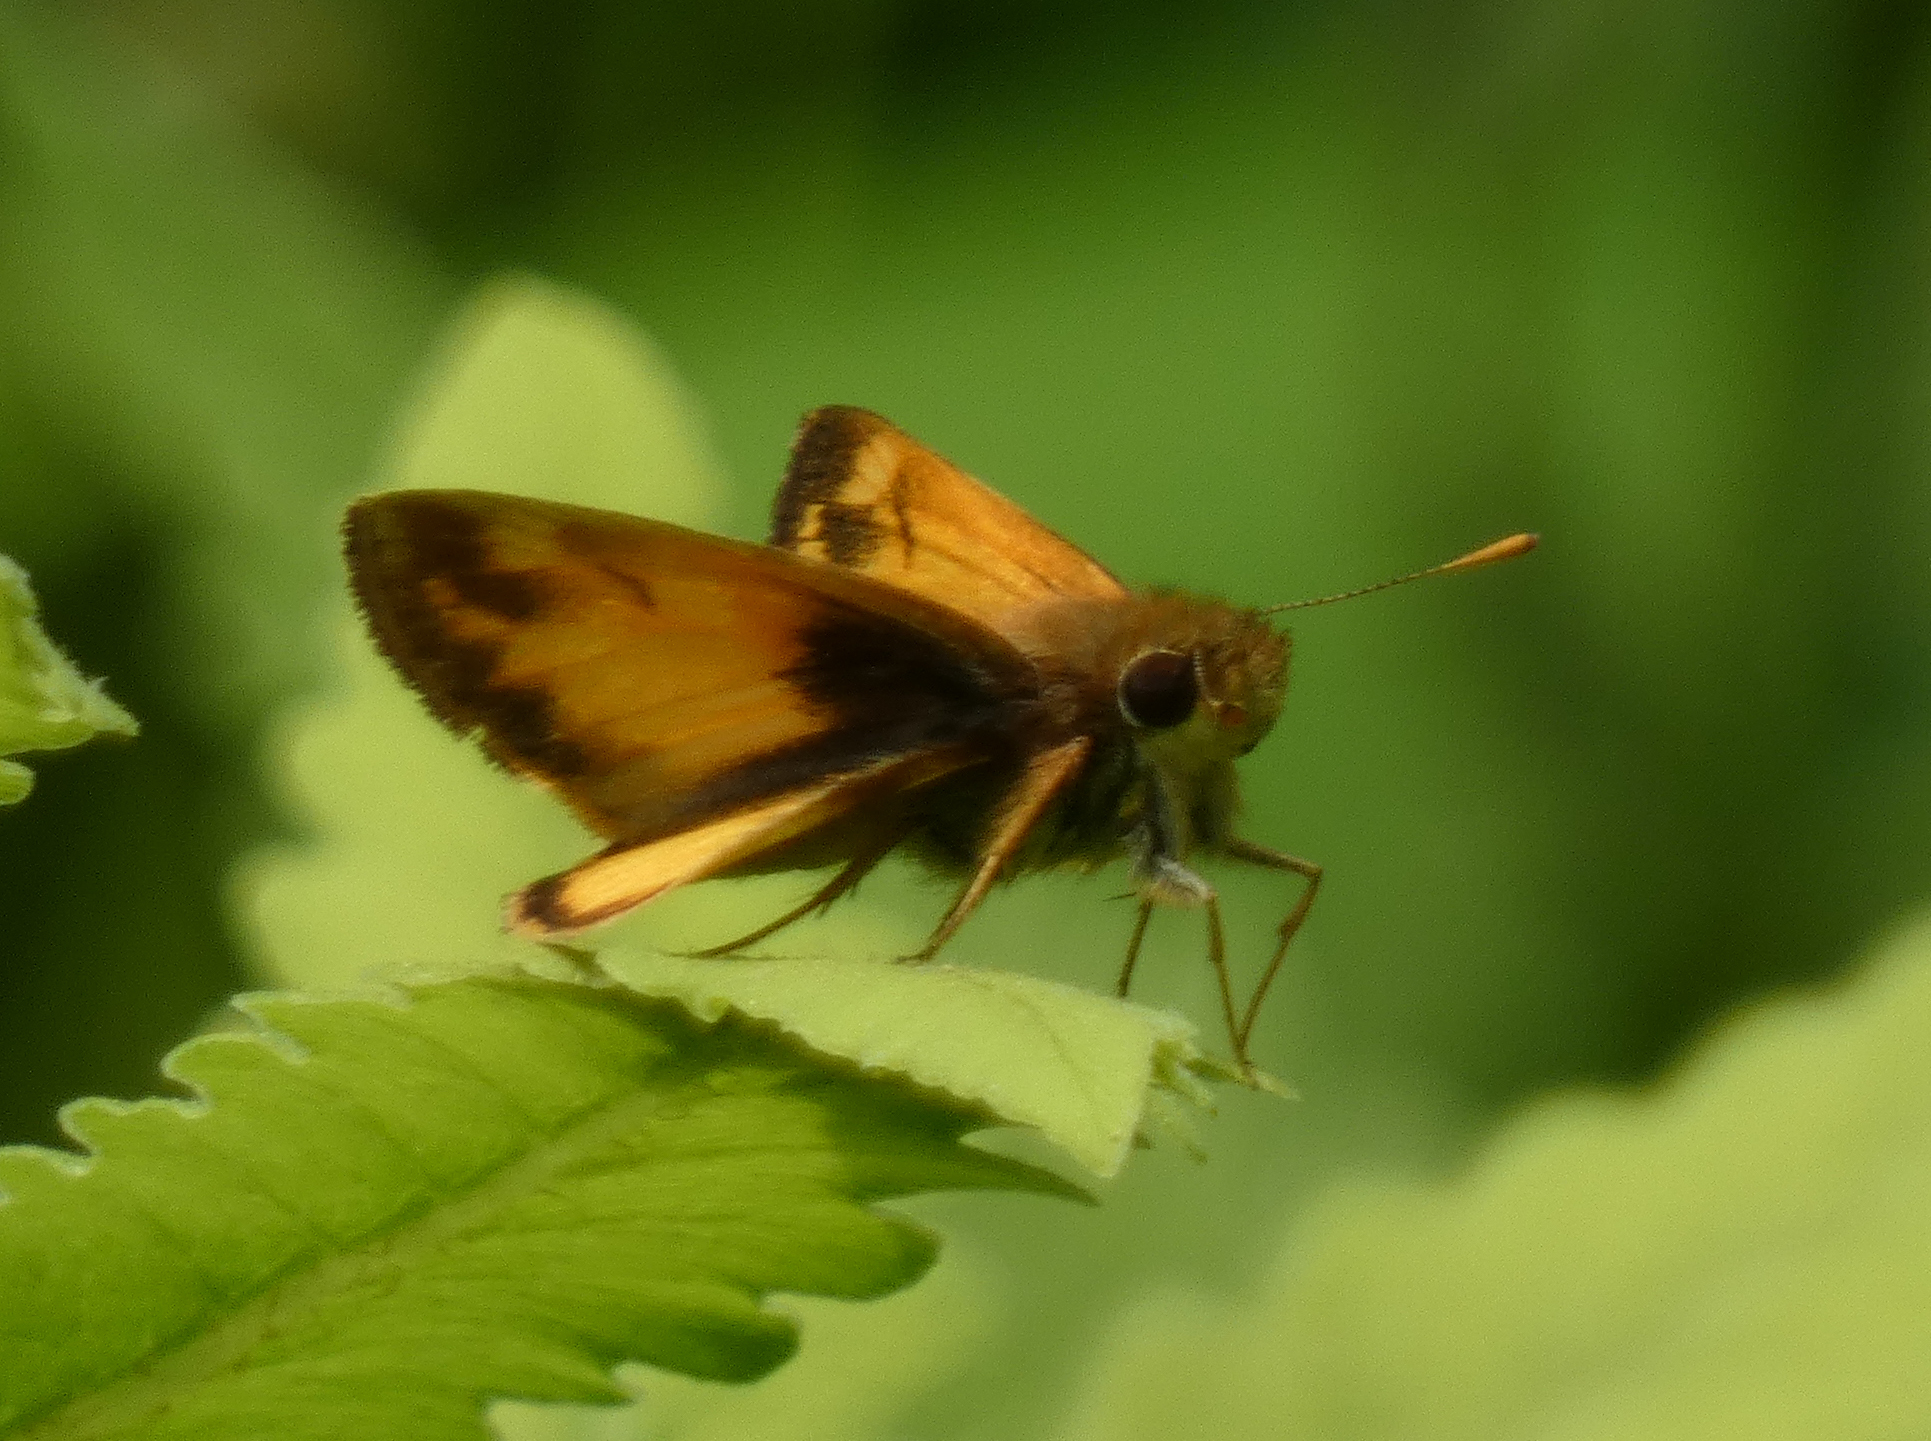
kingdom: Animalia
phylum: Arthropoda
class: Insecta
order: Lepidoptera
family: Hesperiidae
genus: Lon
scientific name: Lon zabulon
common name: Zabulon skipper
